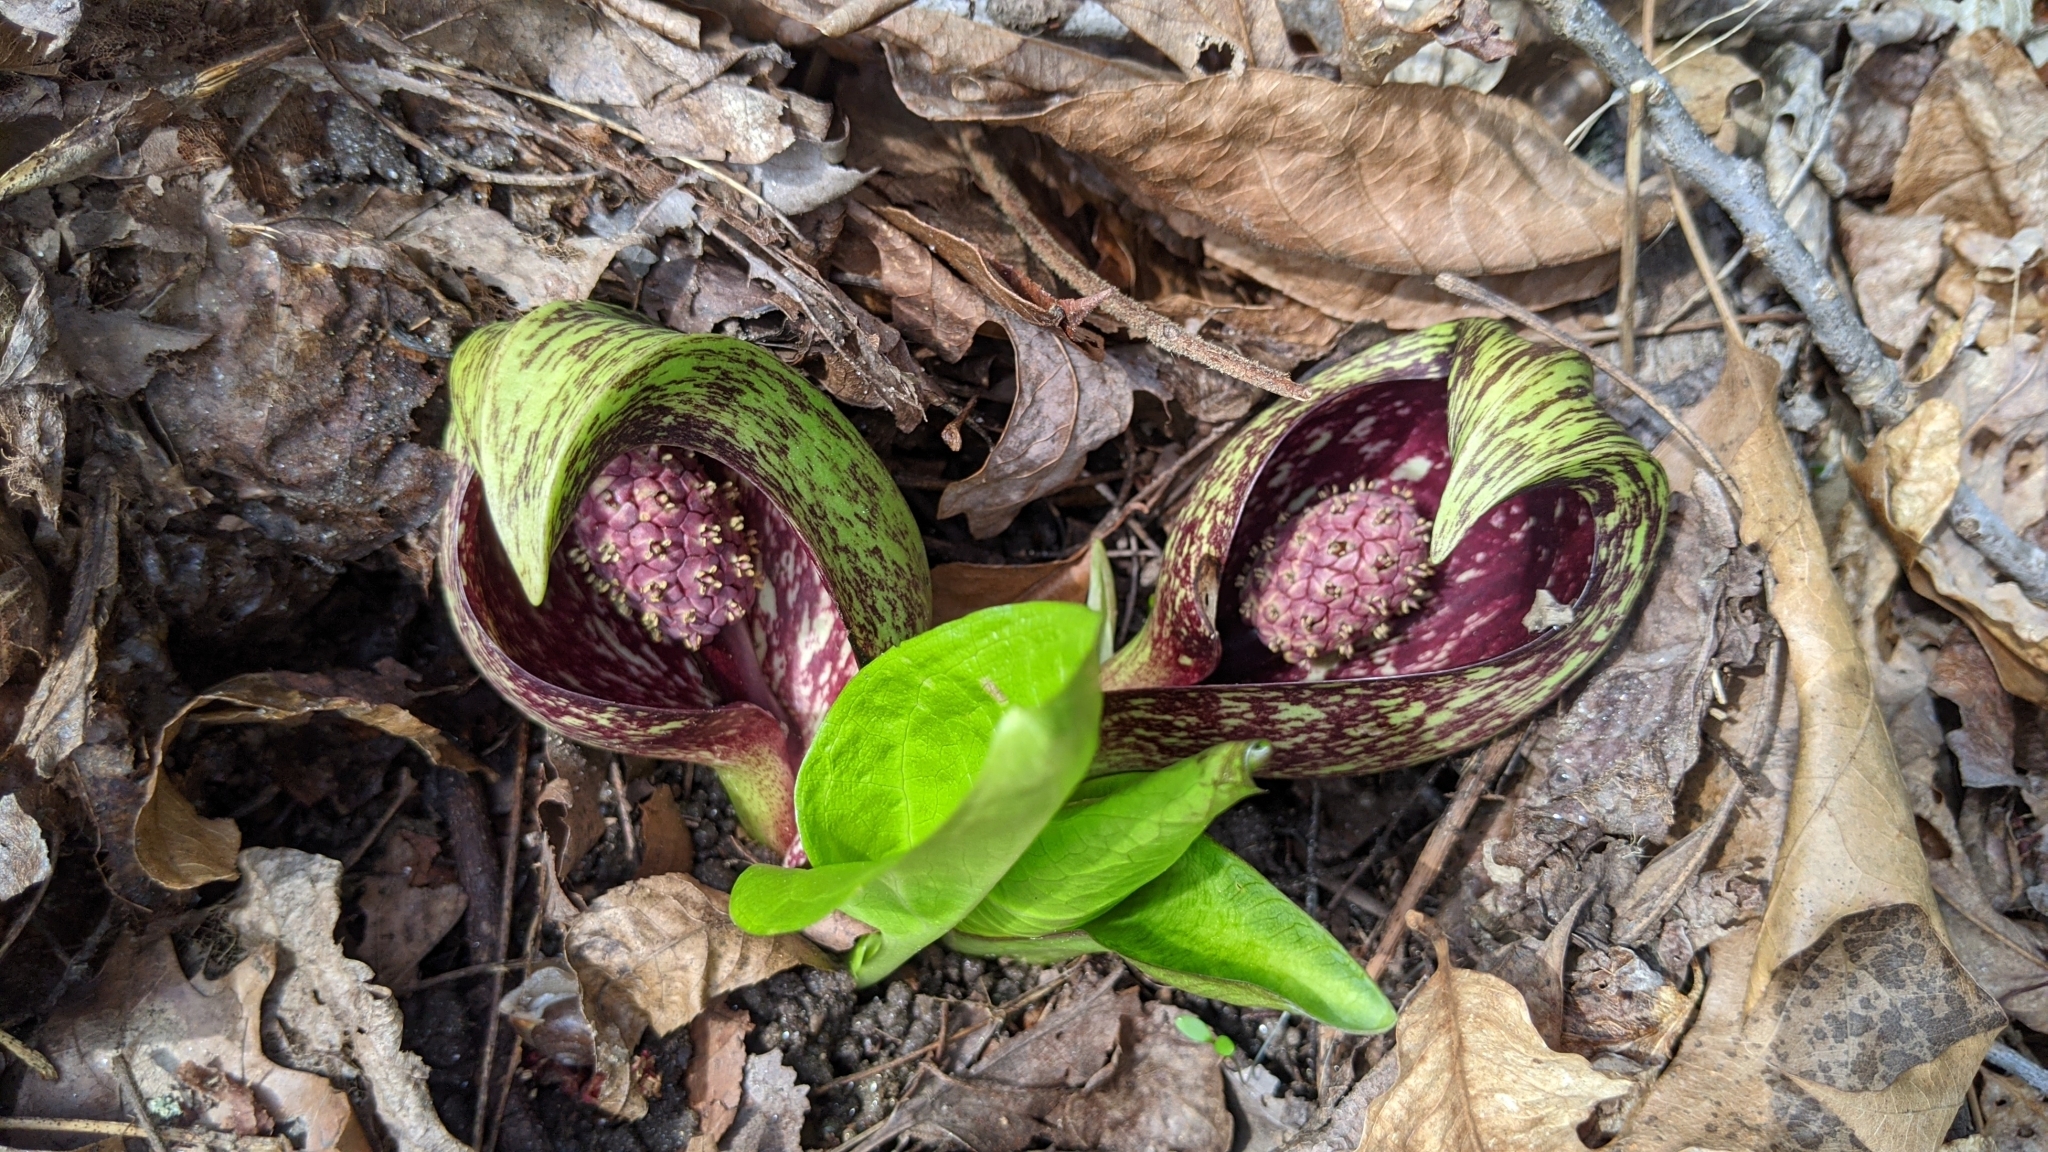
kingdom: Plantae
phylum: Tracheophyta
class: Liliopsida
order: Alismatales
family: Araceae
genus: Symplocarpus
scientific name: Symplocarpus foetidus
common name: Eastern skunk cabbage
